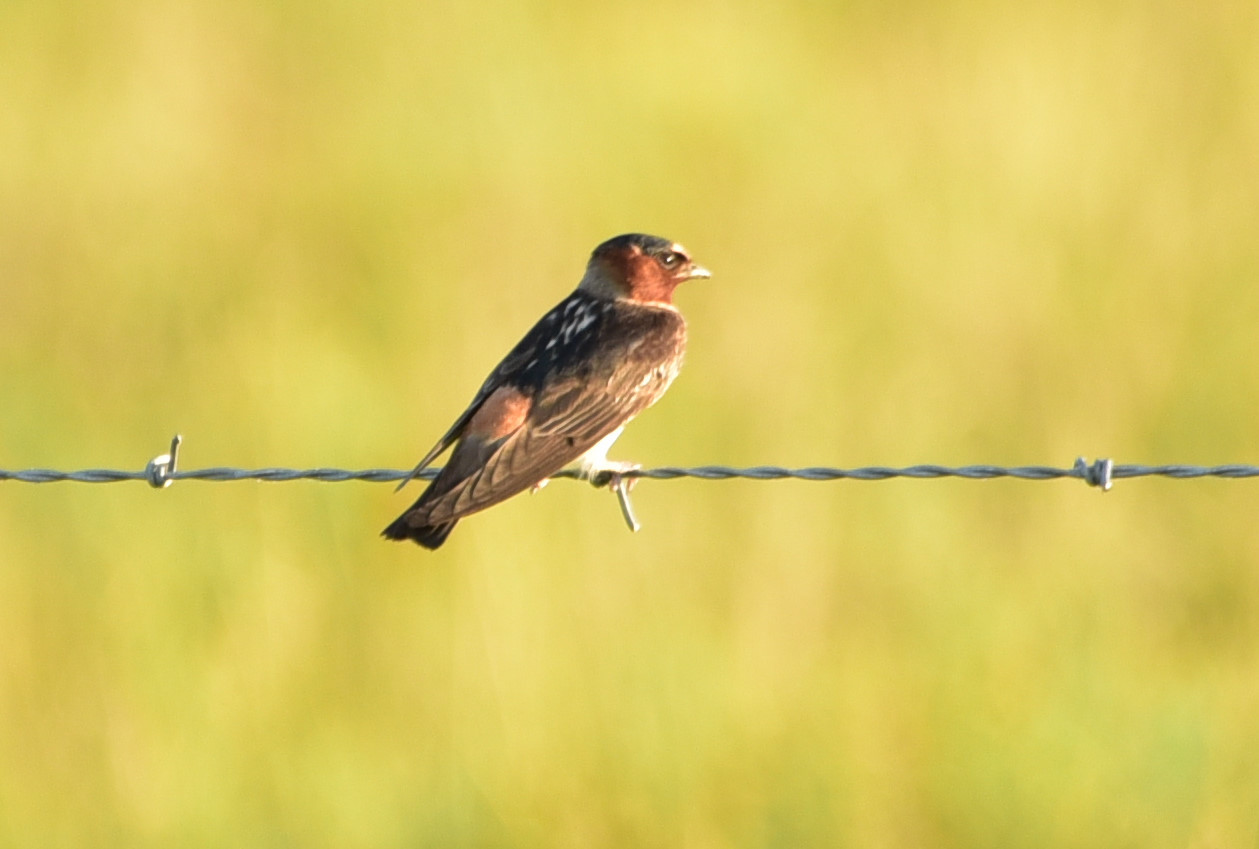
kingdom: Animalia
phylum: Chordata
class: Aves
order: Passeriformes
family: Hirundinidae
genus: Petrochelidon
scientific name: Petrochelidon pyrrhonota
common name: American cliff swallow
